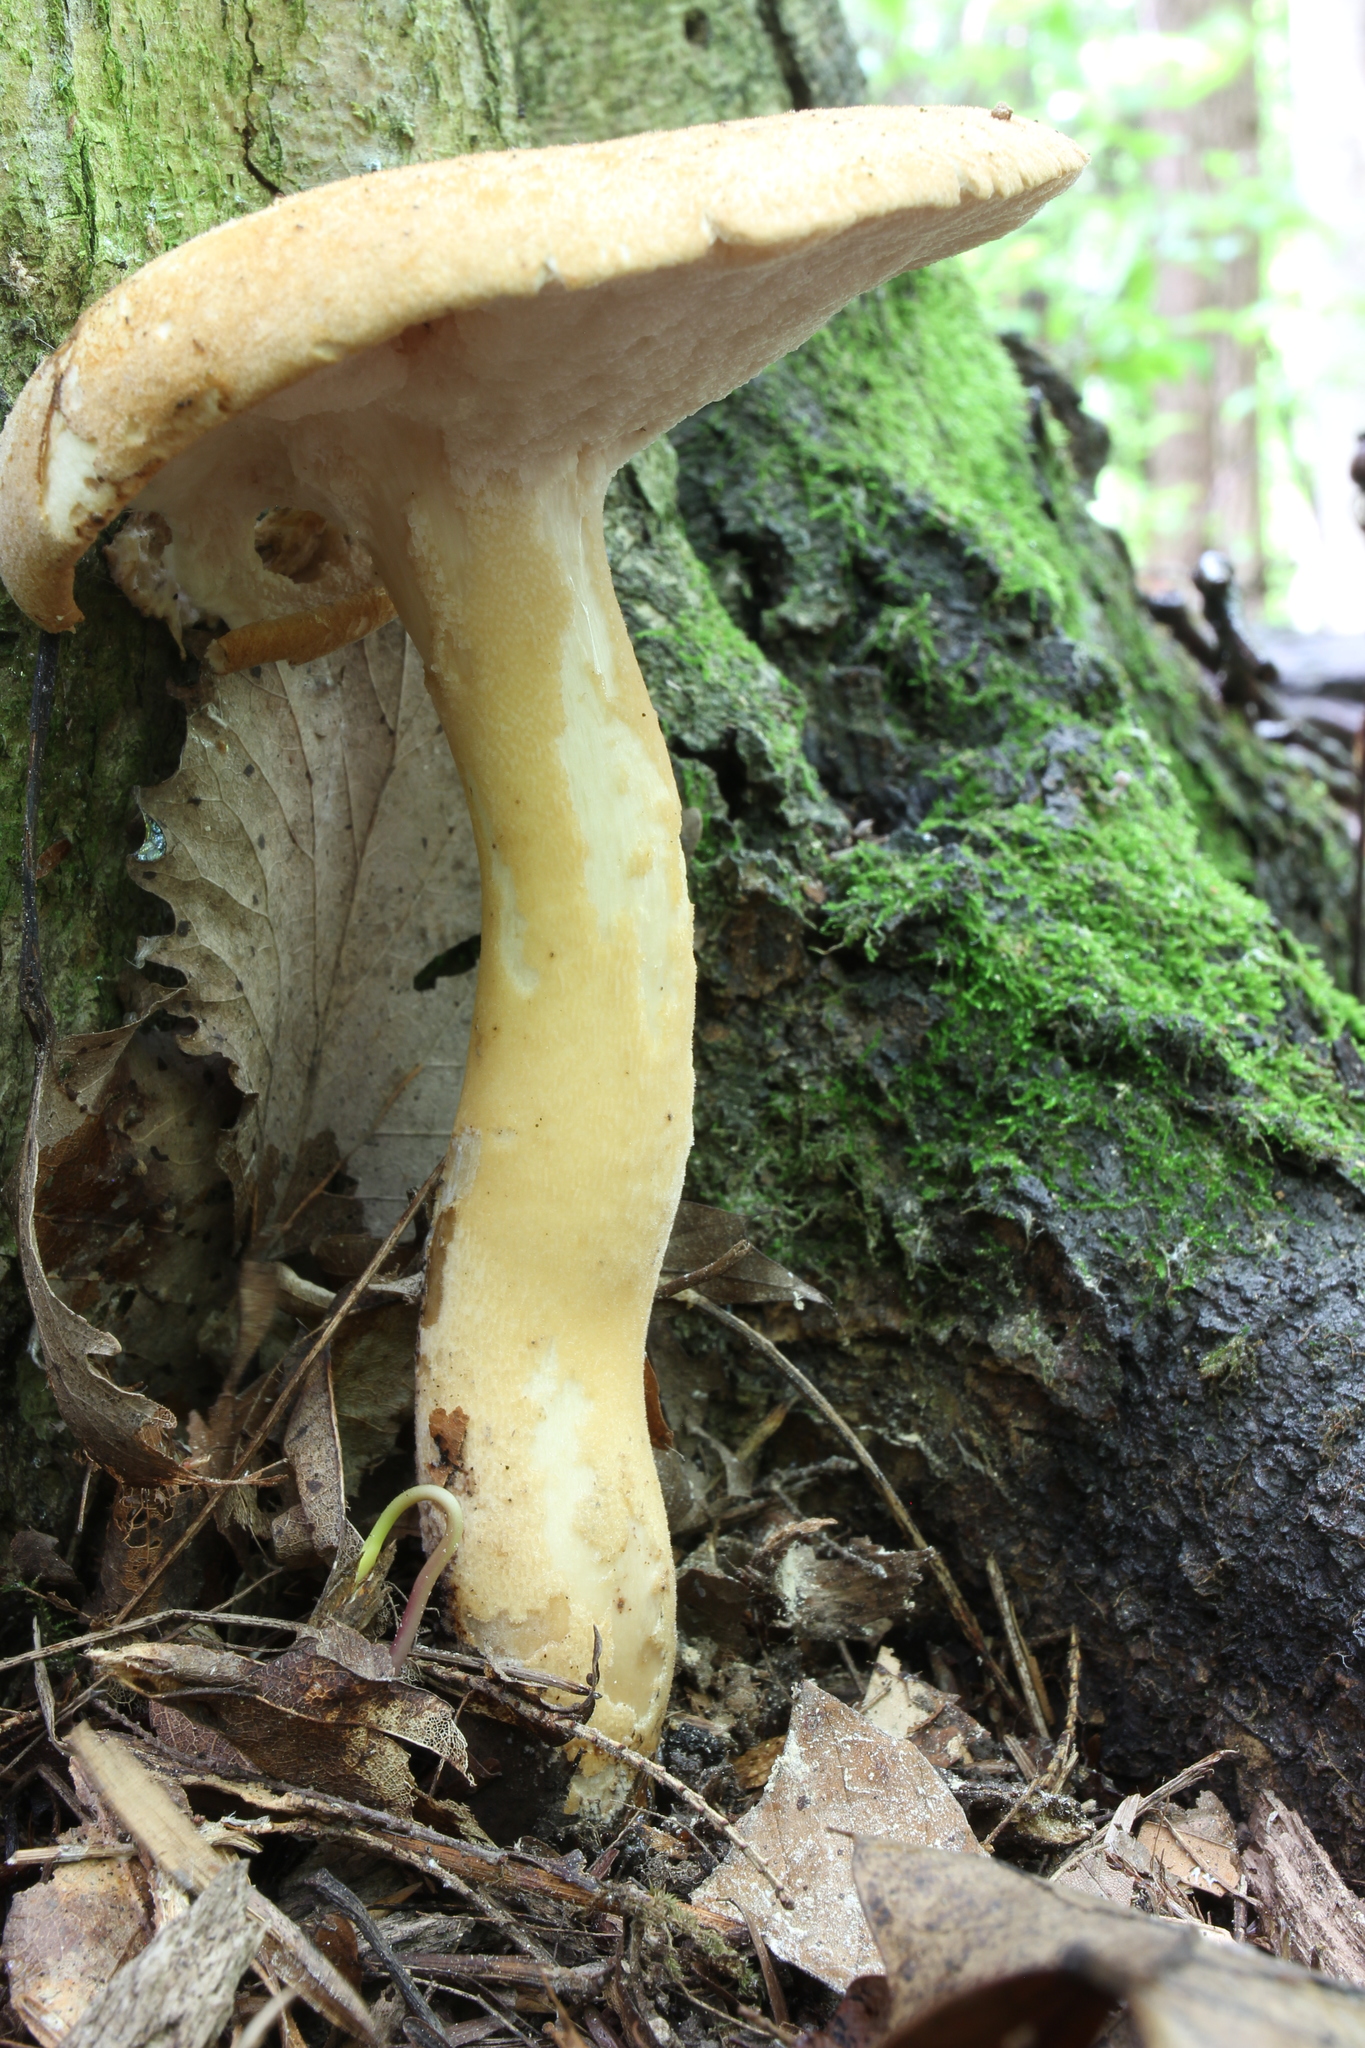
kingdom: Fungi
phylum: Basidiomycota
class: Agaricomycetes
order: Polyporales
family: Polyporaceae
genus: Polyporus
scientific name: Polyporus radicatus
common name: Rooting polypore
